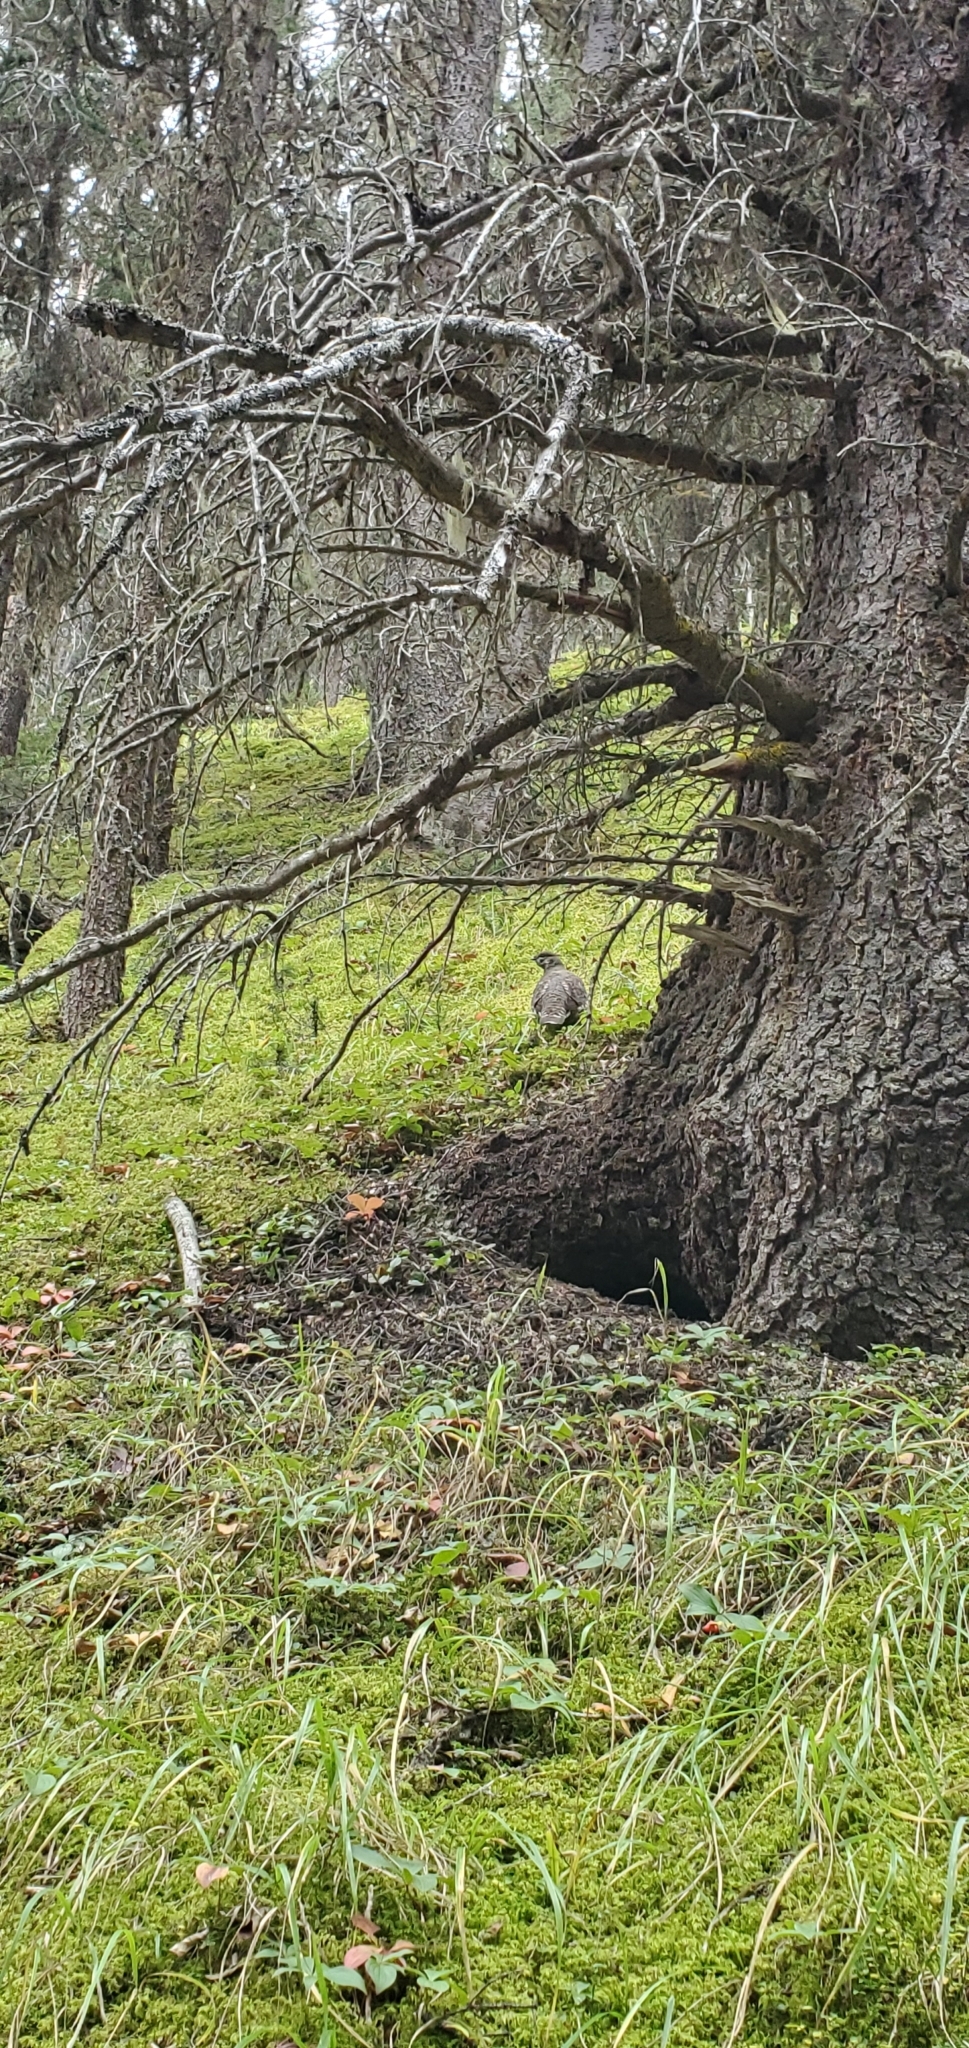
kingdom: Animalia
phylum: Chordata
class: Aves
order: Galliformes
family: Phasianidae
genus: Canachites
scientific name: Canachites canadensis
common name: Spruce grouse
